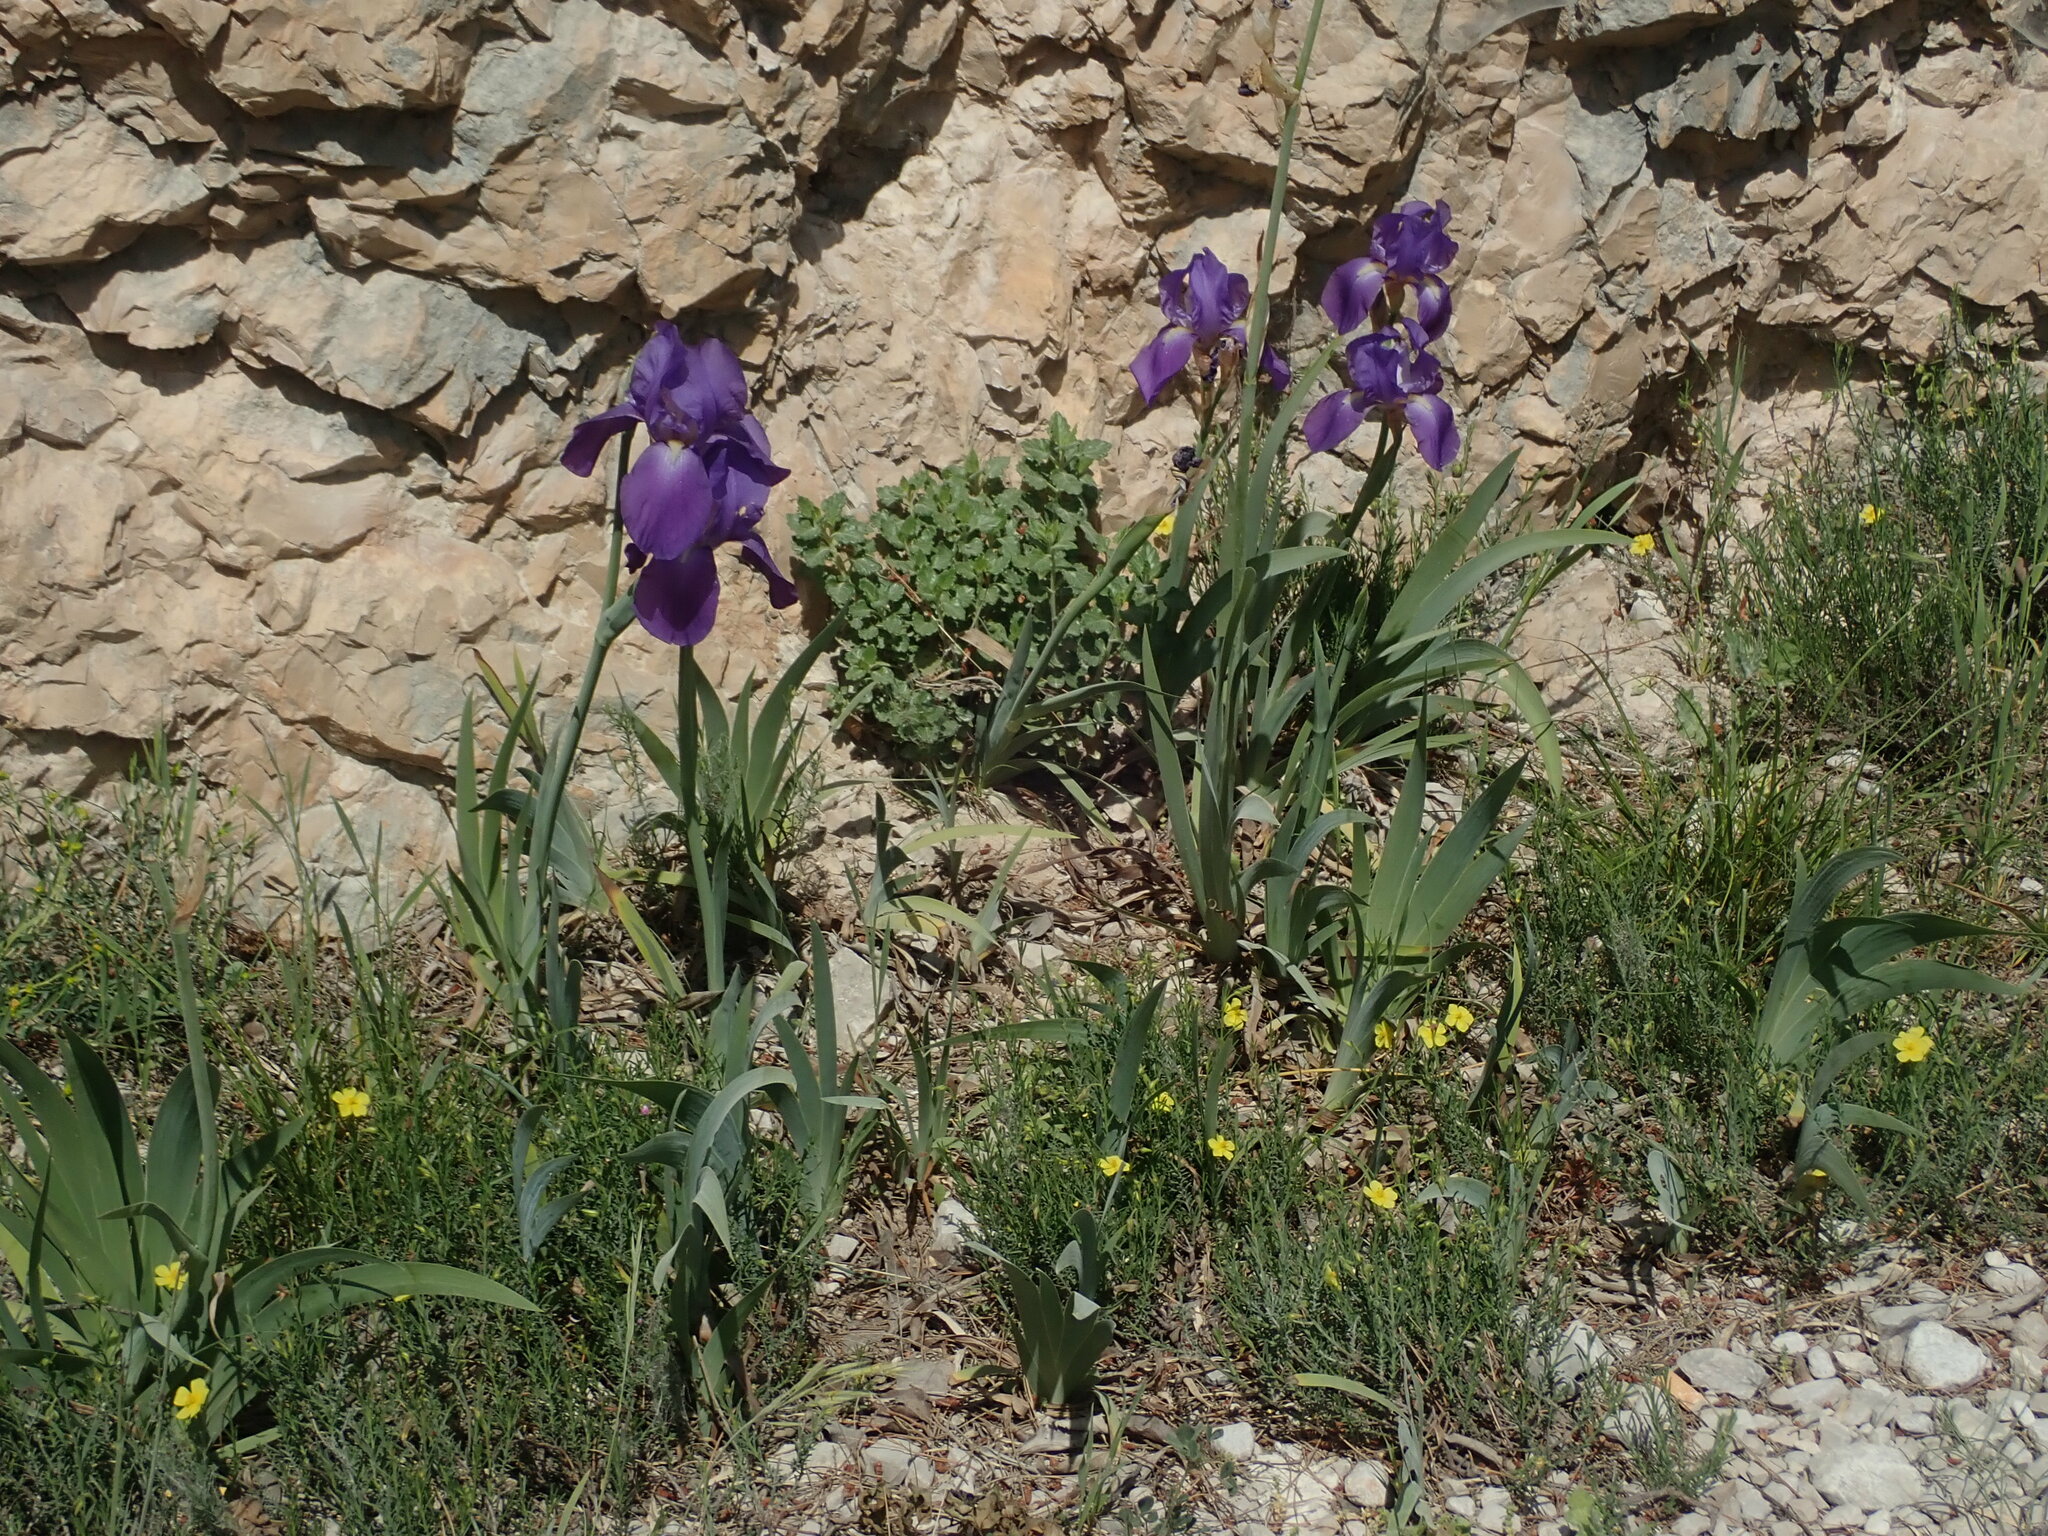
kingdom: Plantae
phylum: Tracheophyta
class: Liliopsida
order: Asparagales
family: Iridaceae
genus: Iris
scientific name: Iris pallida
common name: Sweet iris
